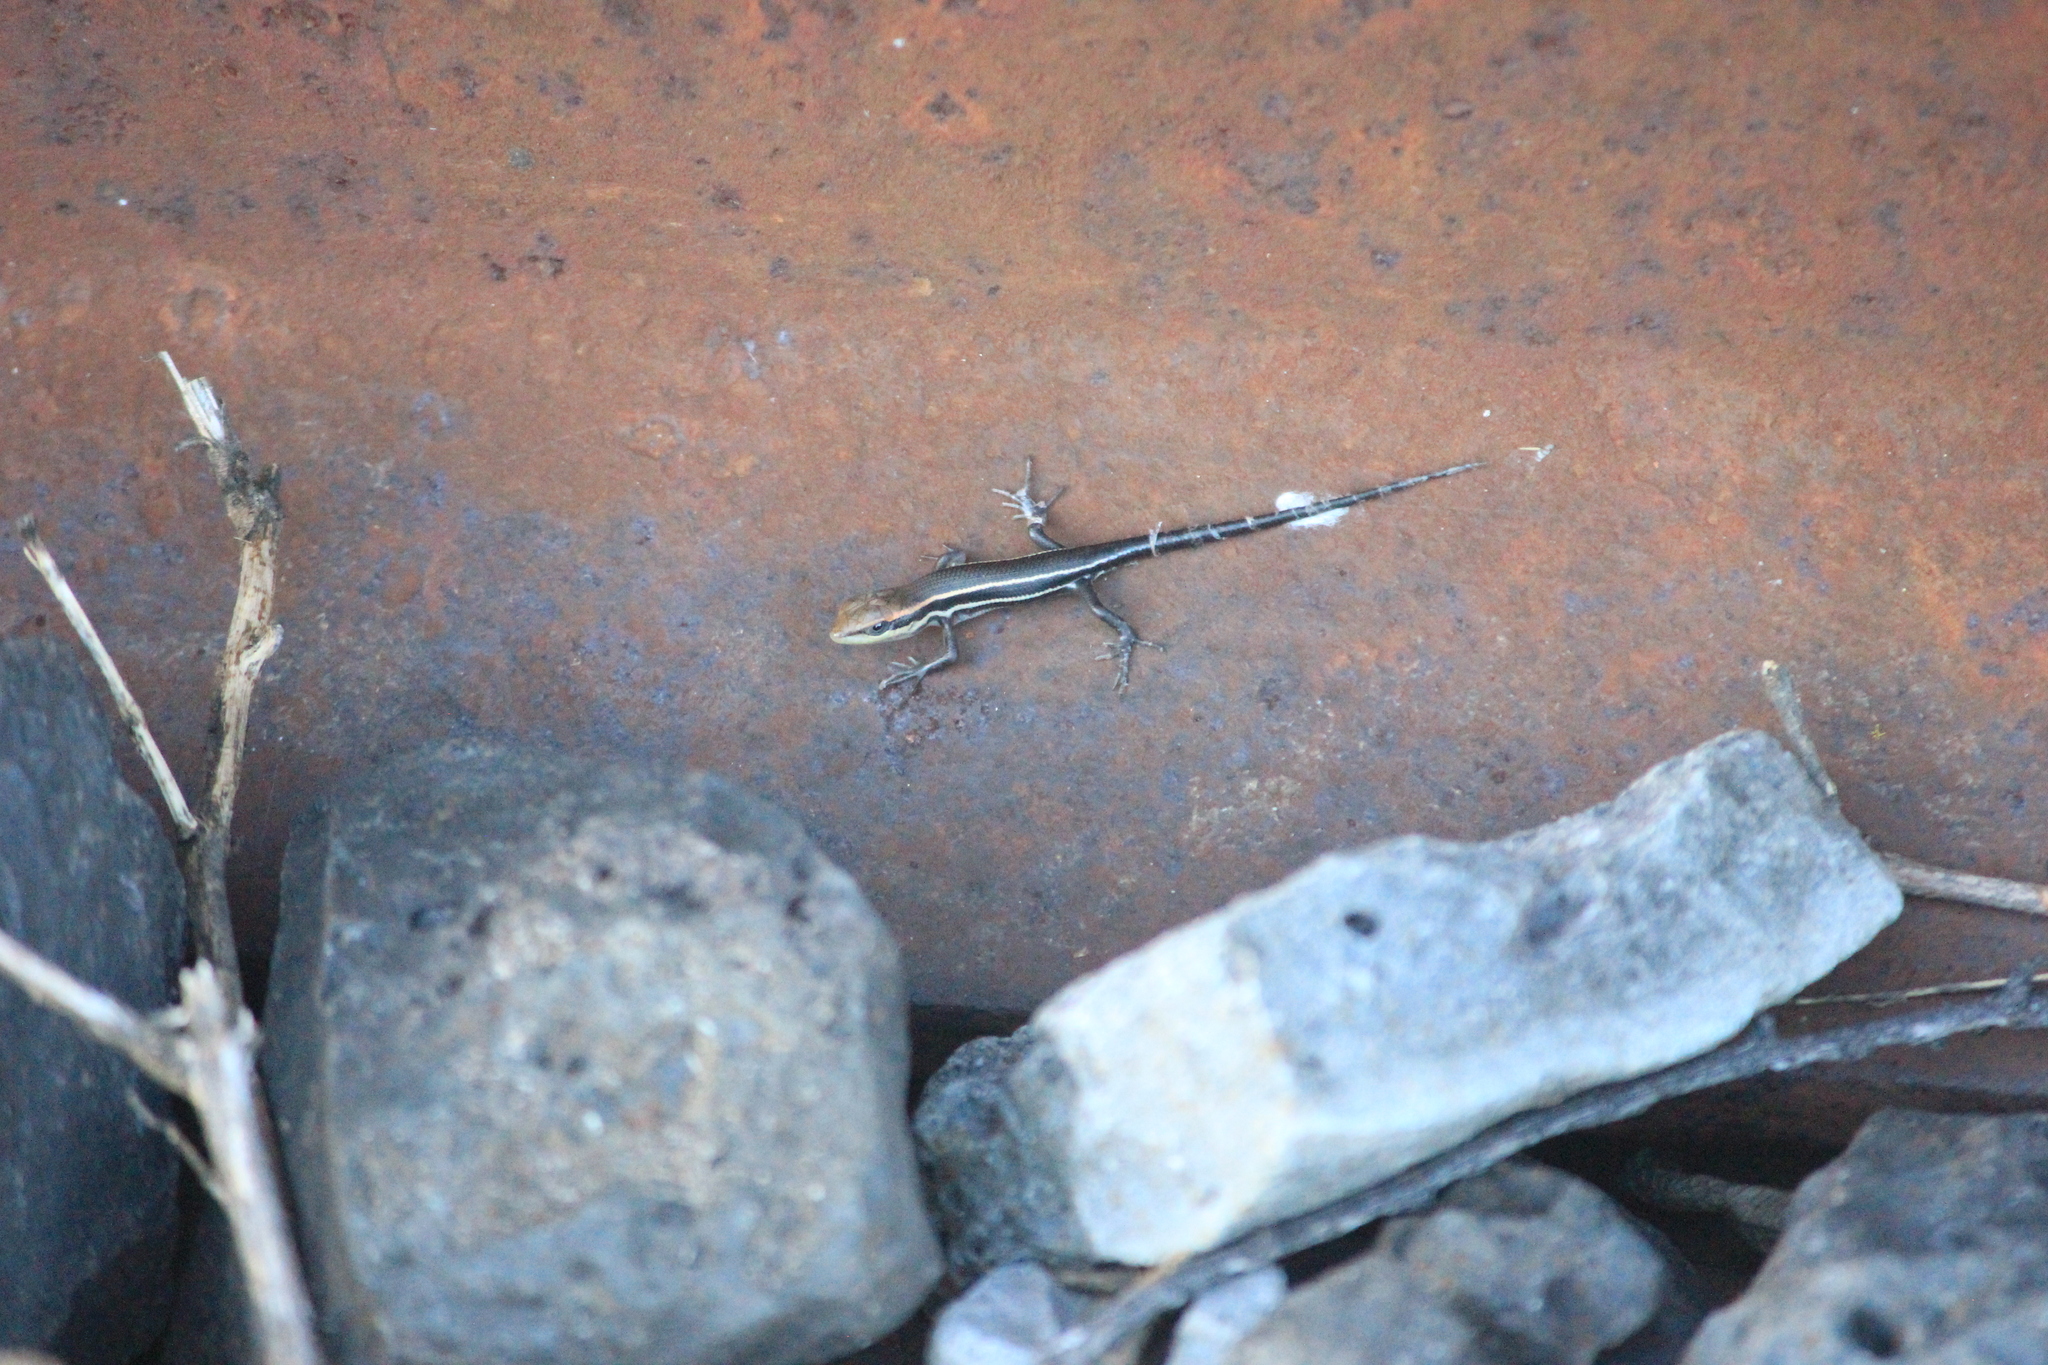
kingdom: Animalia
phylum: Chordata
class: Squamata
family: Scincidae
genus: Trachylepis
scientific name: Trachylepis damarana
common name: Damara skink
